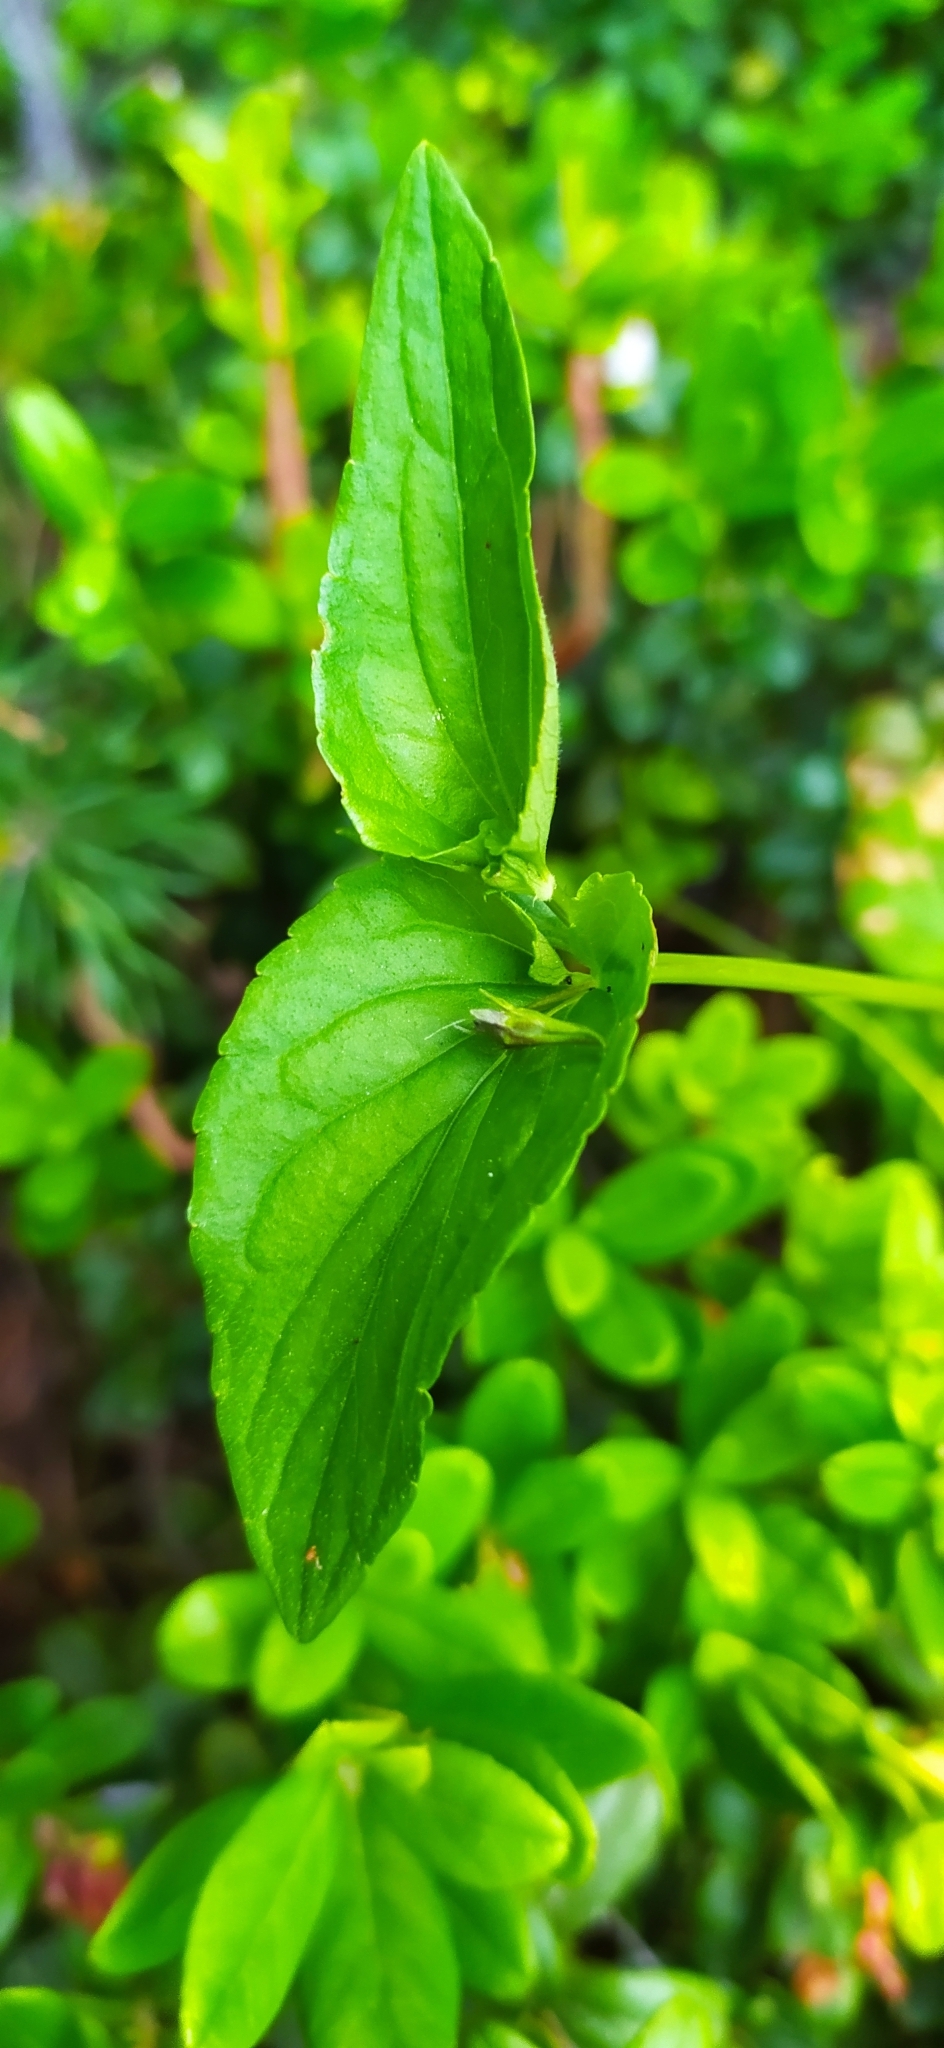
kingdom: Plantae
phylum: Tracheophyta
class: Magnoliopsida
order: Malpighiales
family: Violaceae
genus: Viola
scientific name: Viola
